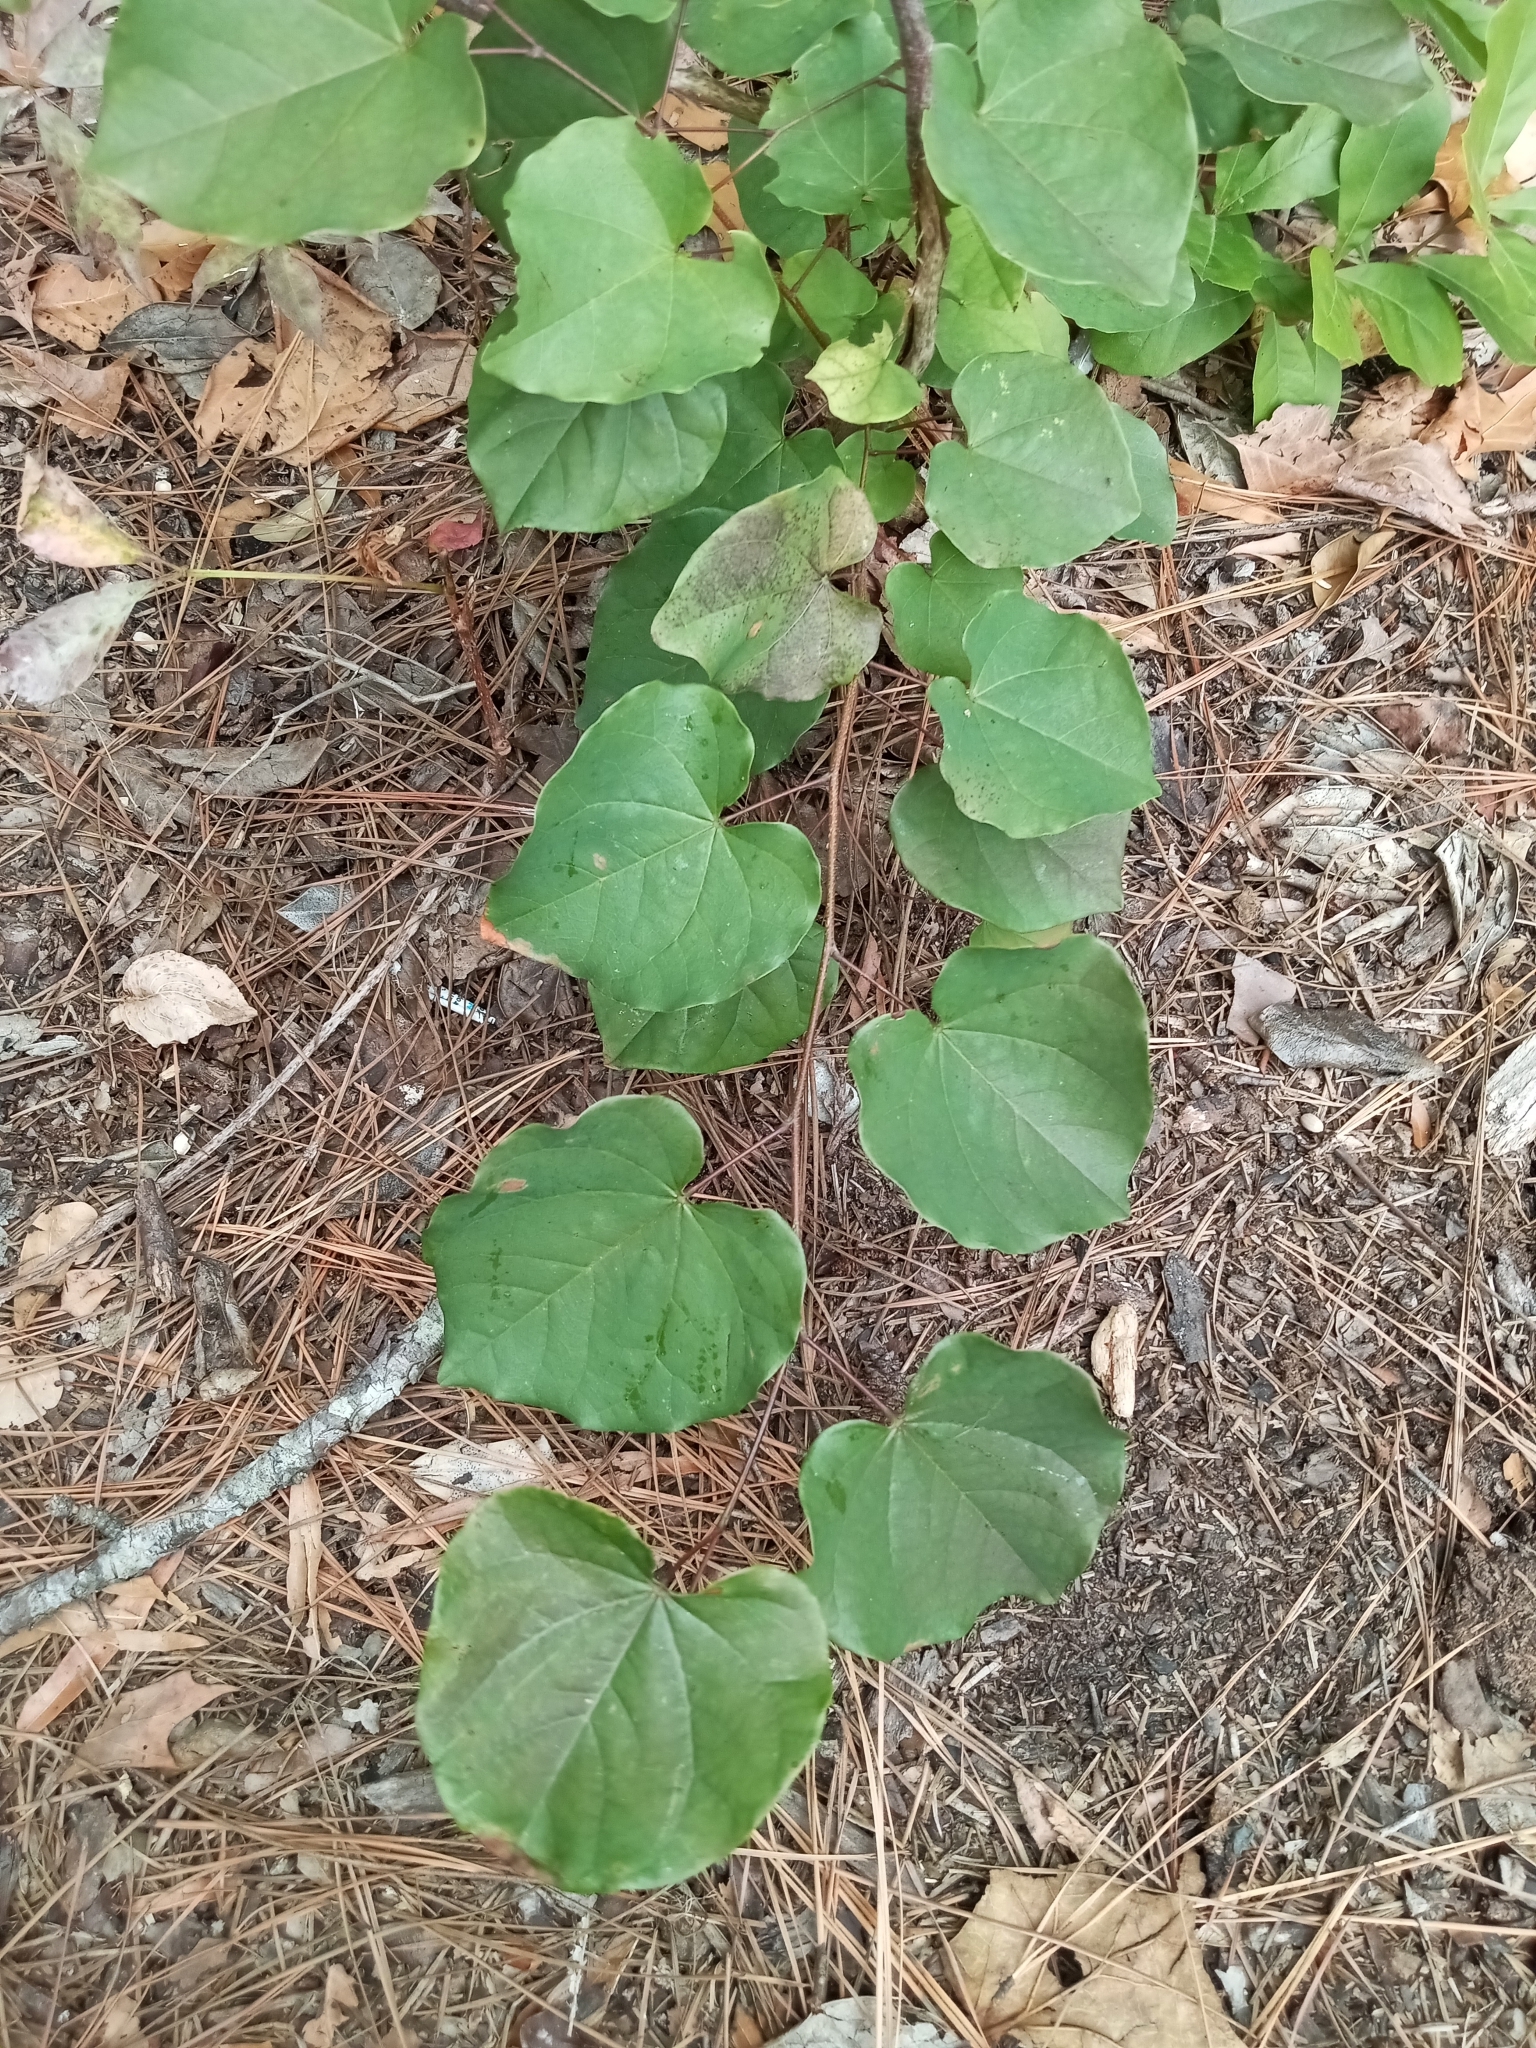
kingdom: Plantae
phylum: Tracheophyta
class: Magnoliopsida
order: Fabales
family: Fabaceae
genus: Cercis
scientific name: Cercis canadensis
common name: Eastern redbud
